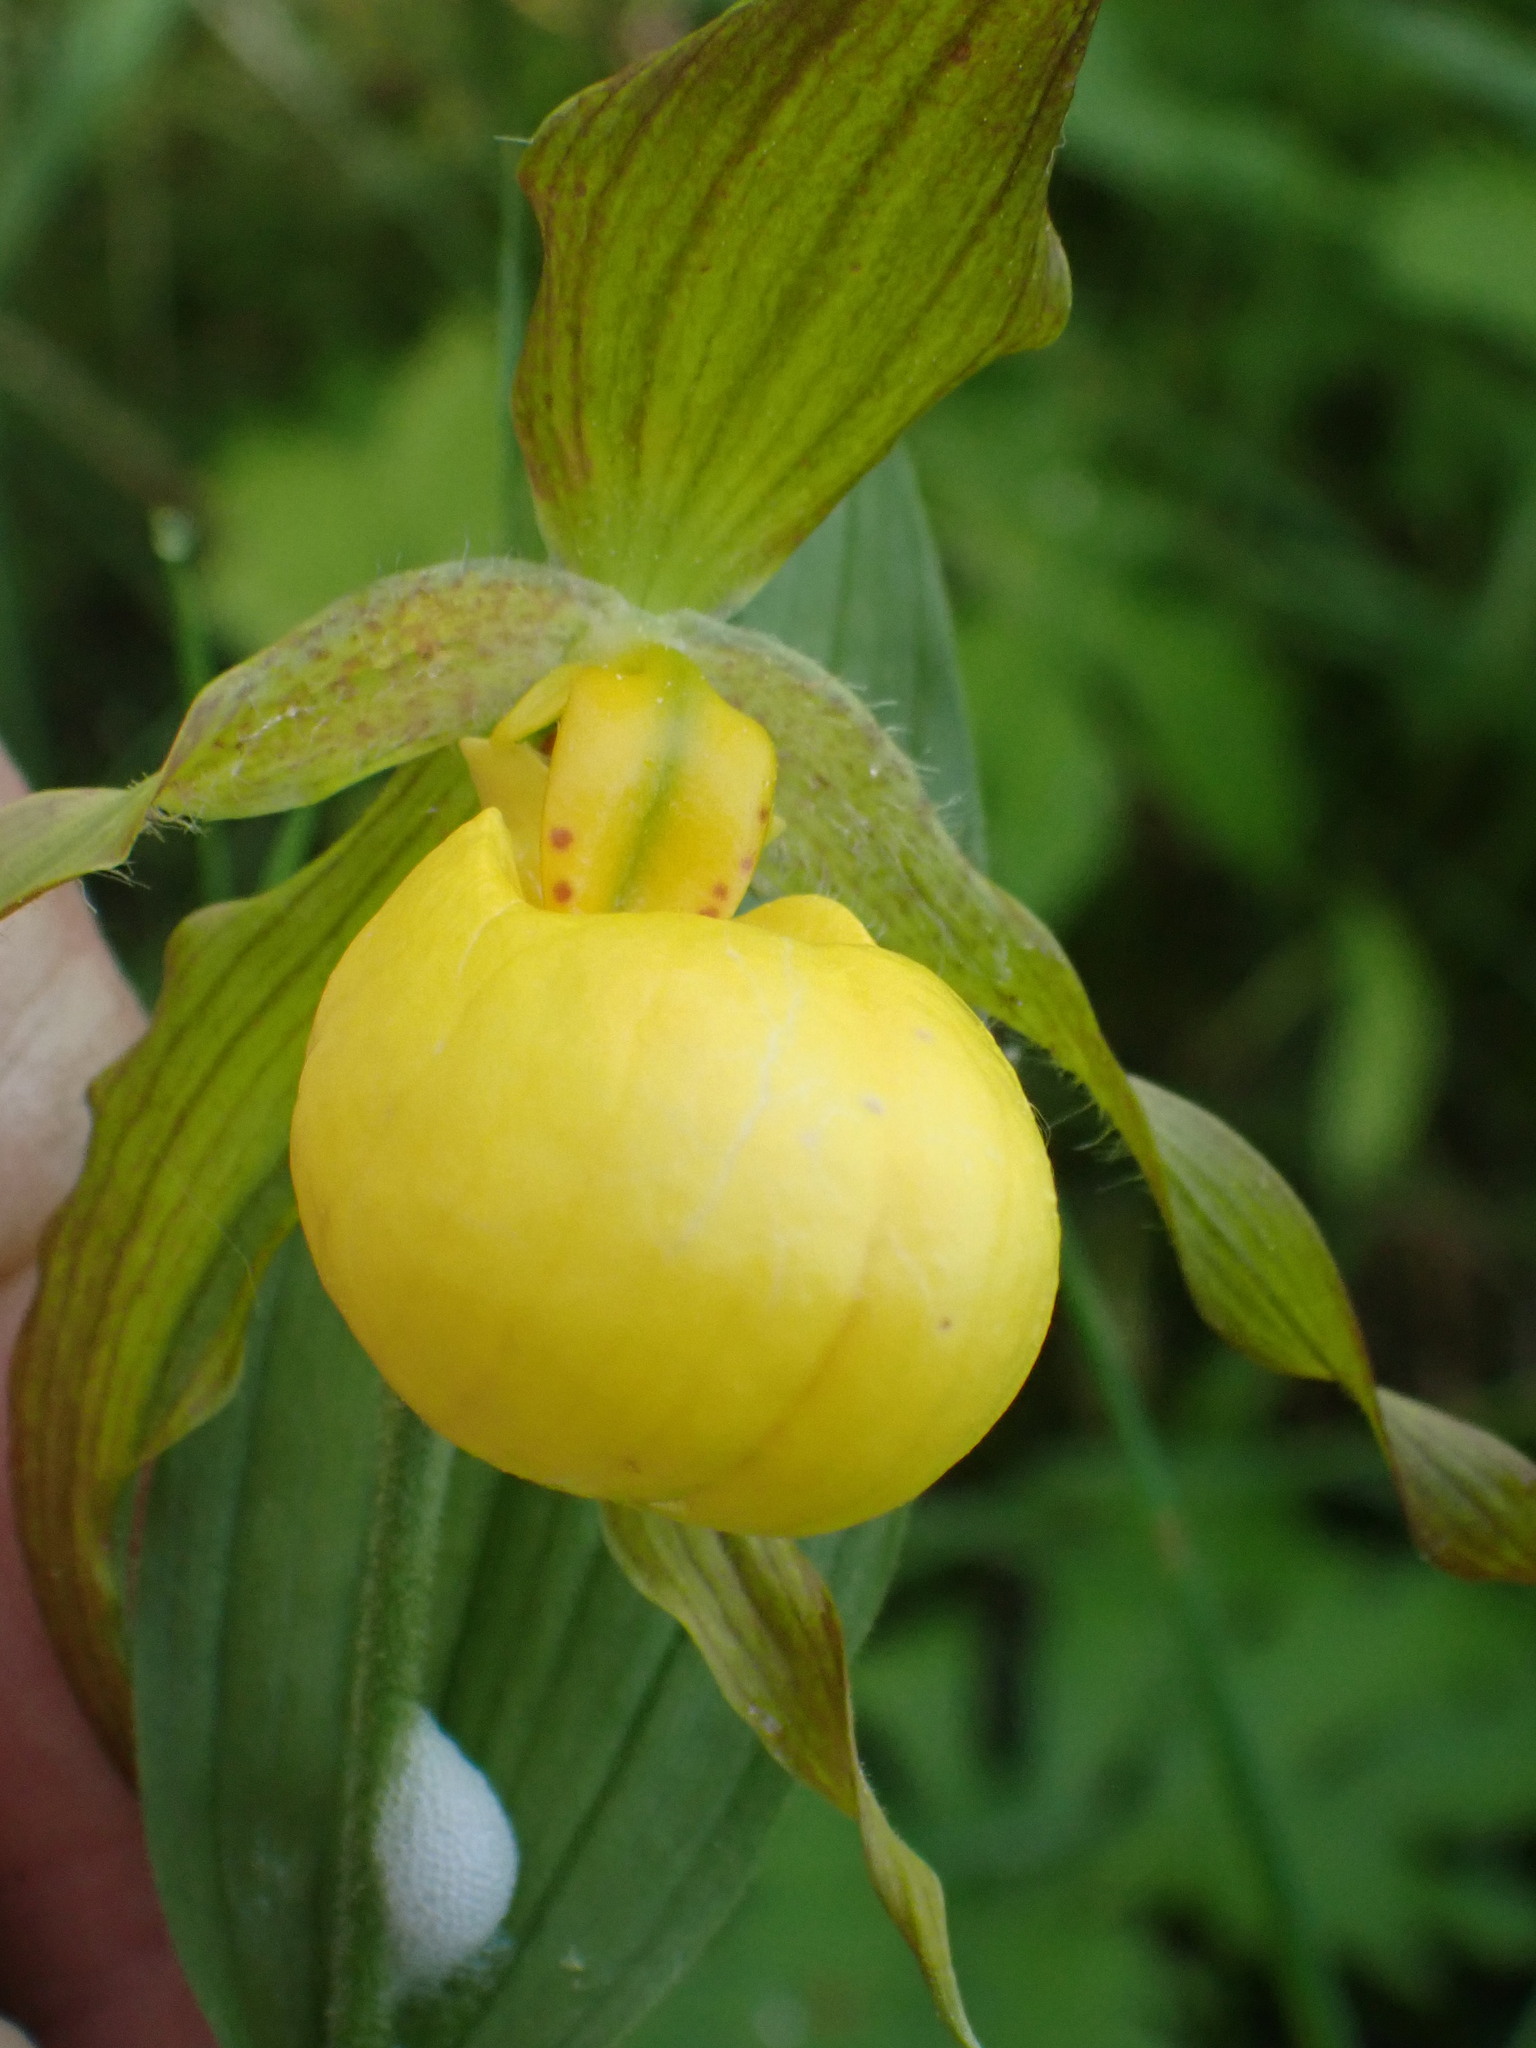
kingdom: Plantae
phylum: Tracheophyta
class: Liliopsida
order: Asparagales
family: Orchidaceae
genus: Cypripedium
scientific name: Cypripedium parviflorum
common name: American yellow lady's-slipper
